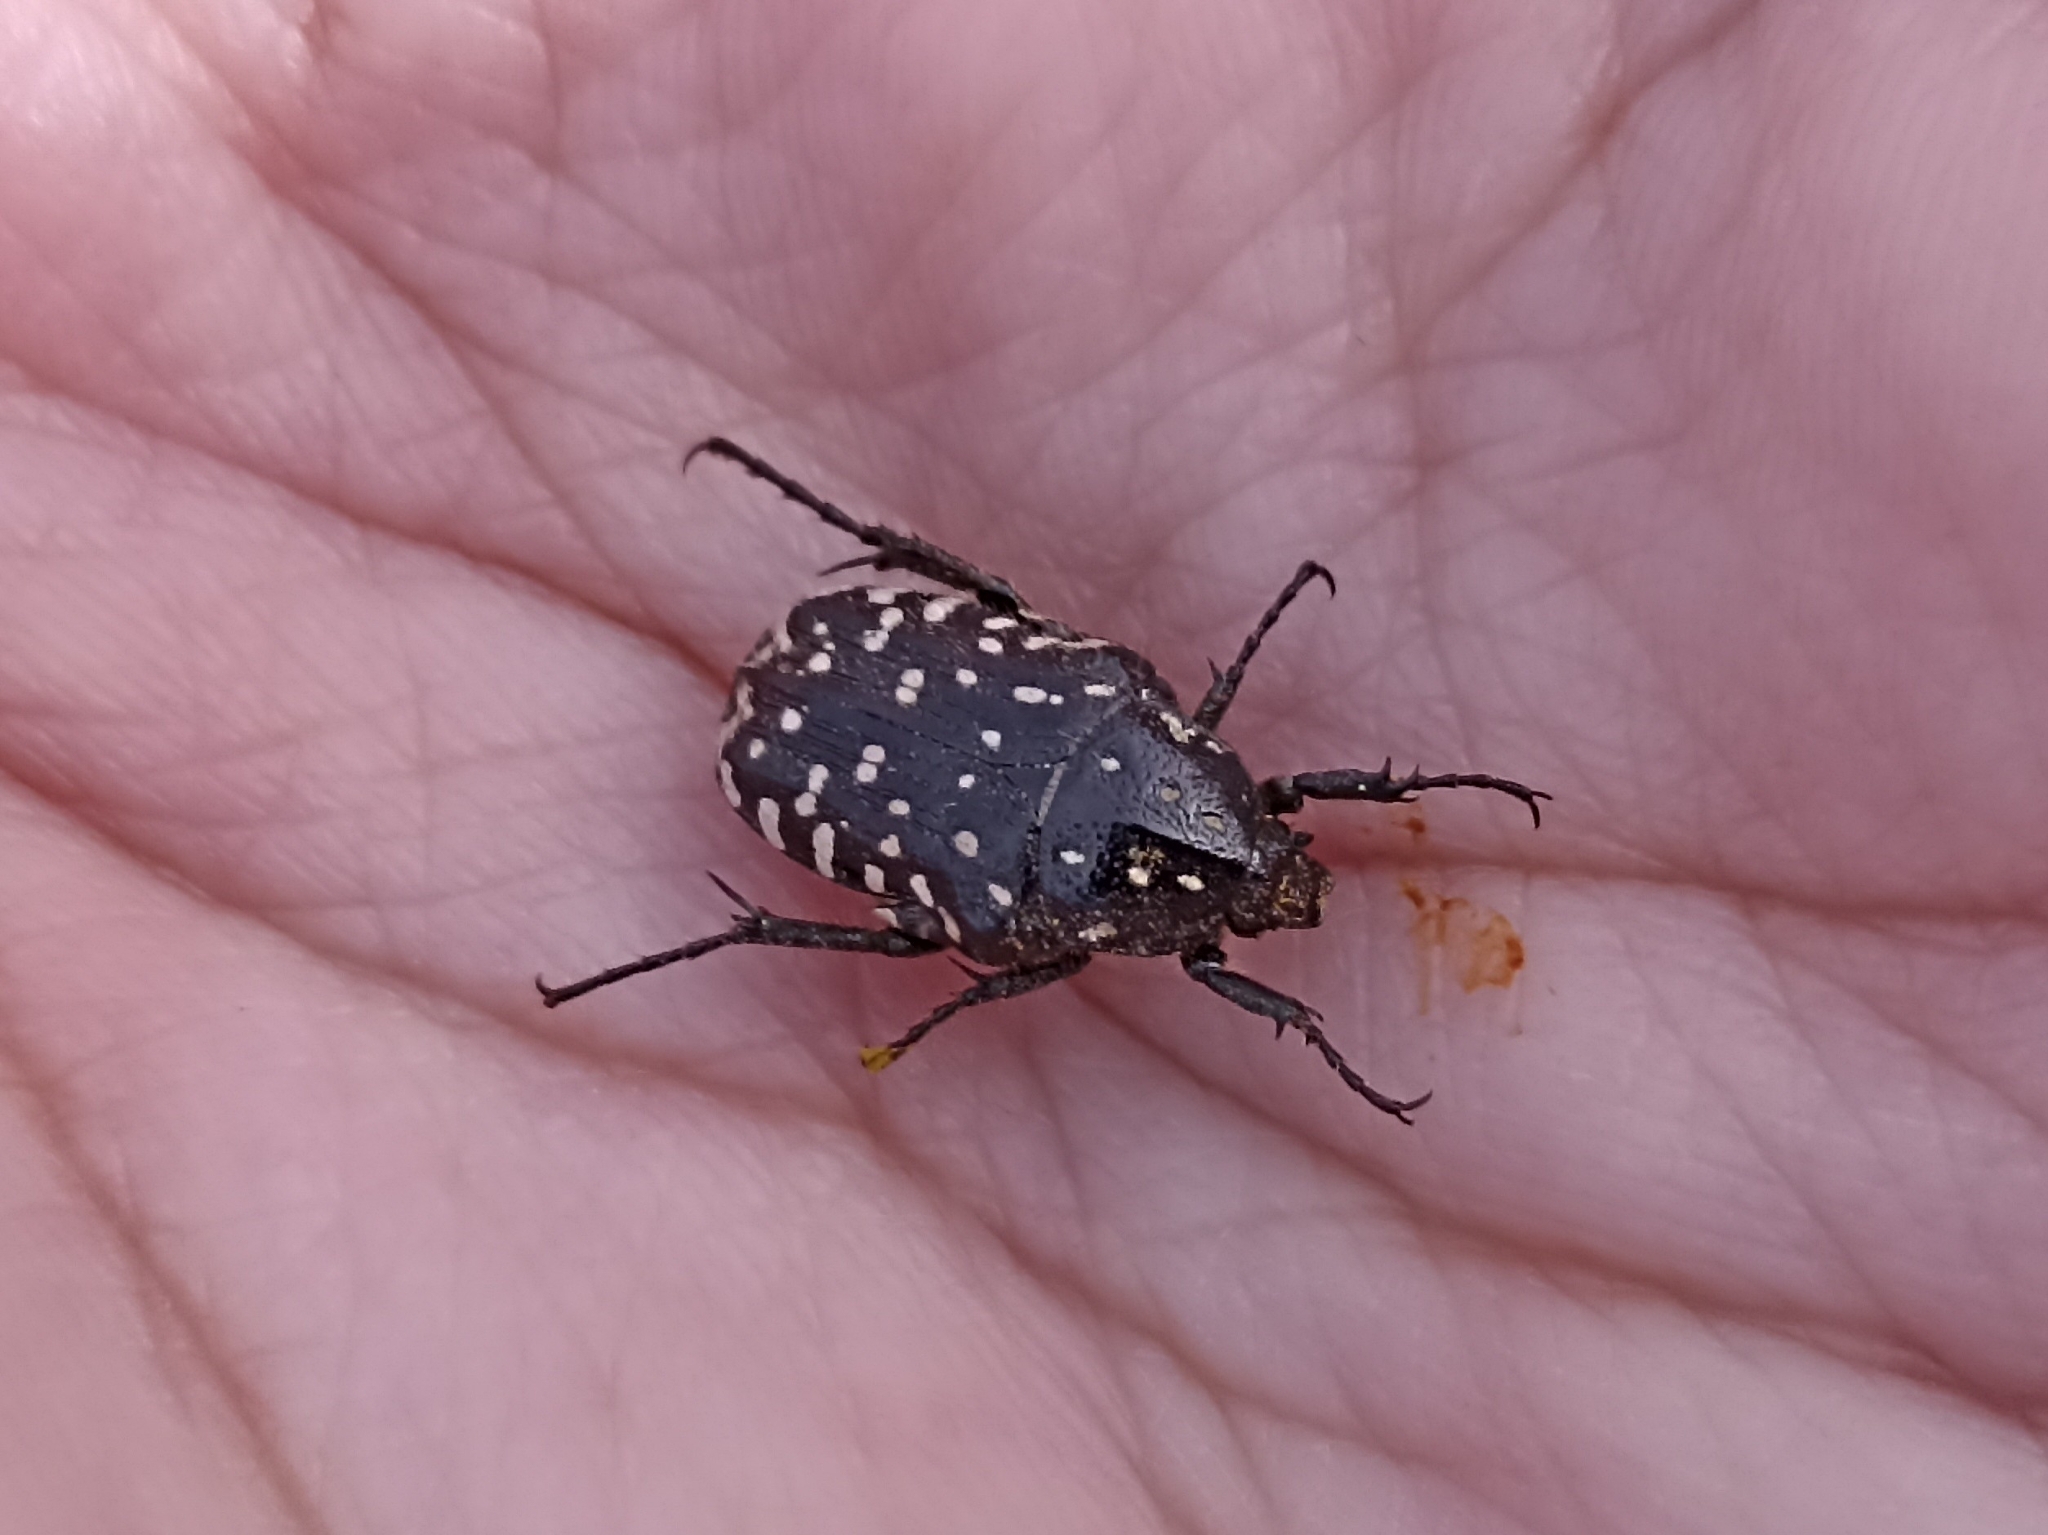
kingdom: Animalia
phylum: Arthropoda
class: Insecta
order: Coleoptera
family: Scarabaeidae
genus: Oxythyrea
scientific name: Oxythyrea funesta
